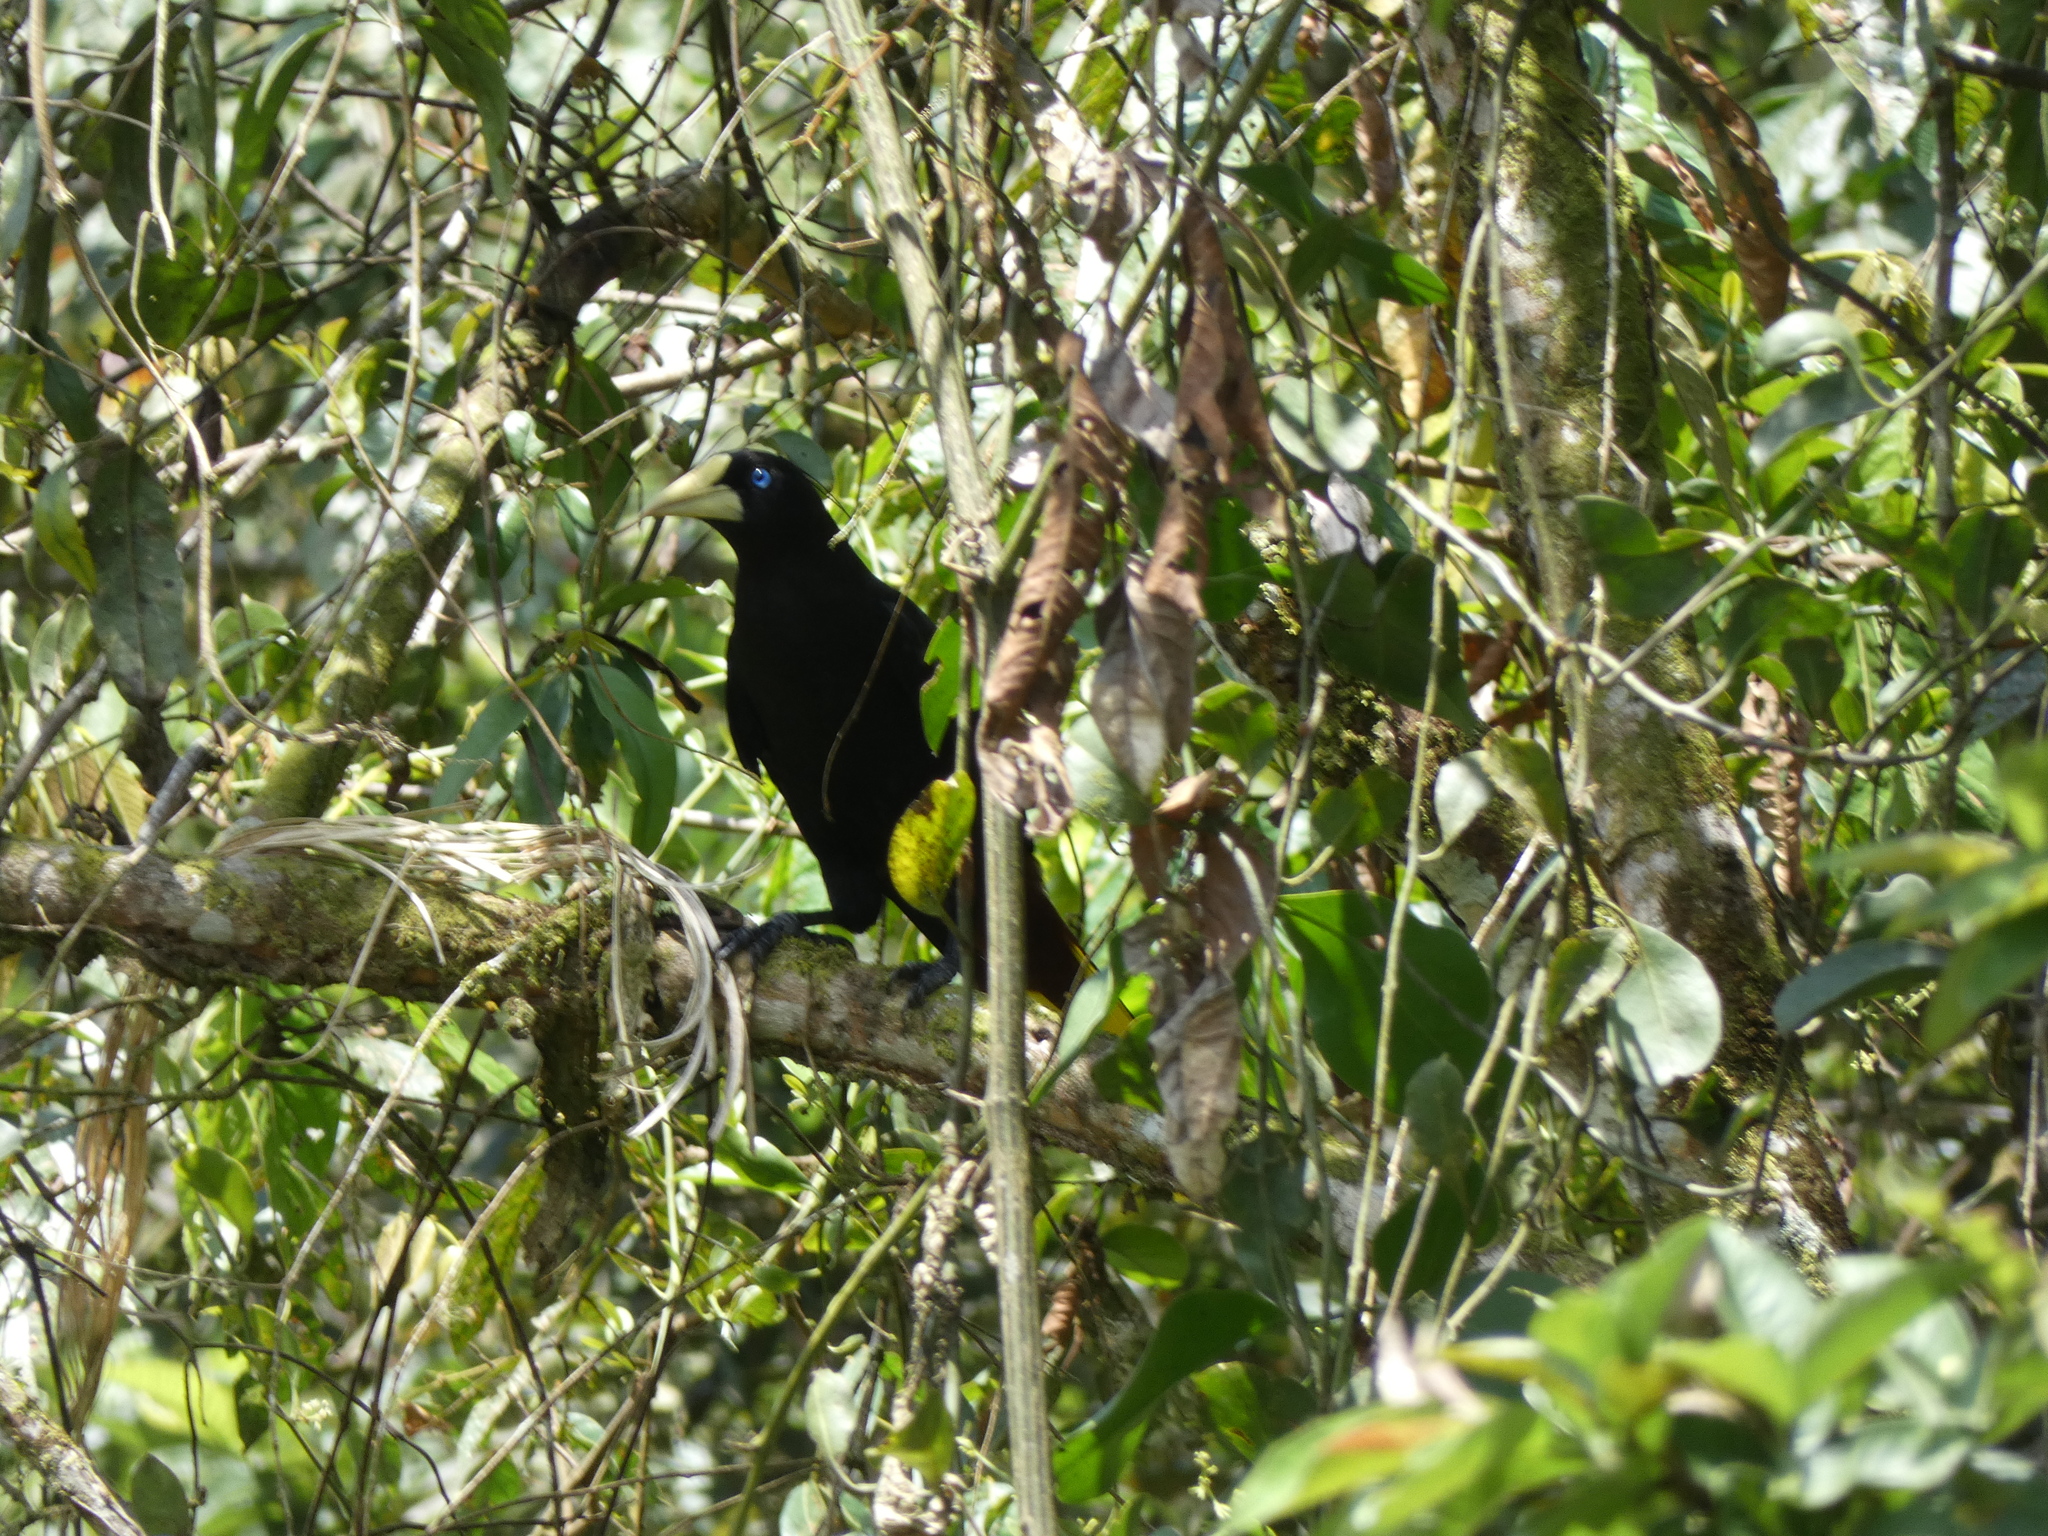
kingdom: Animalia
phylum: Chordata
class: Aves
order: Passeriformes
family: Icteridae
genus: Psarocolius
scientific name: Psarocolius decumanus
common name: Crested oropendola
